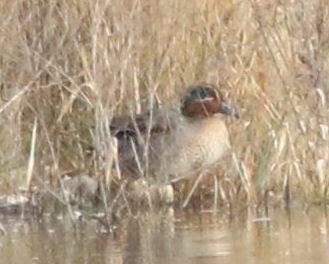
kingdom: Animalia
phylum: Chordata
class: Aves
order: Anseriformes
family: Anatidae
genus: Anas
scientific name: Anas crecca
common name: Eurasian teal
